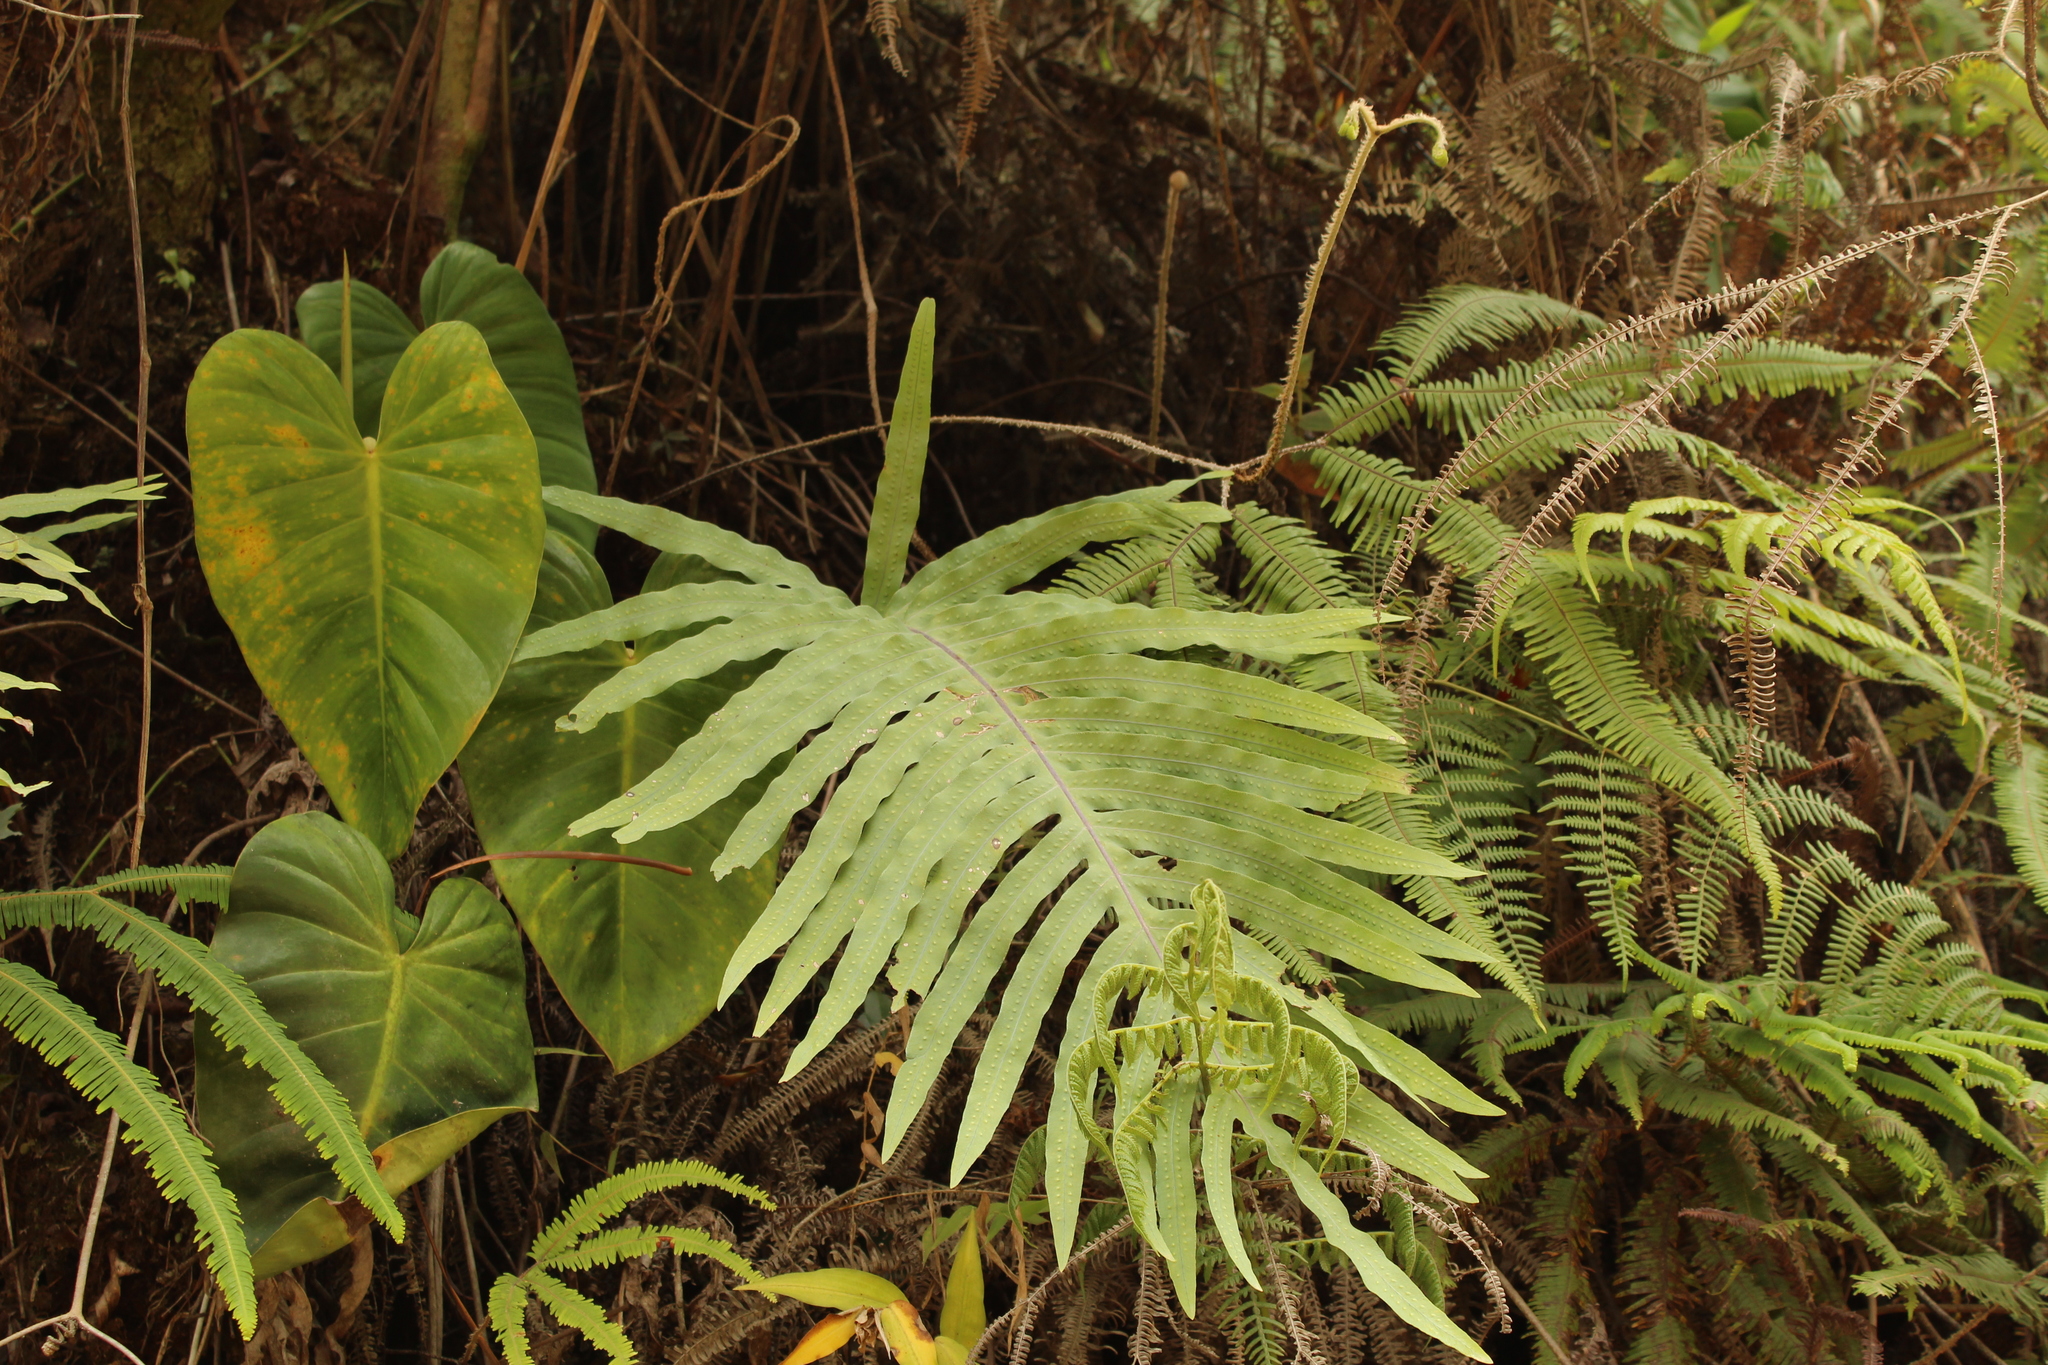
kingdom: Plantae
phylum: Tracheophyta
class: Polypodiopsida
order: Polypodiales
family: Polypodiaceae
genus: Phlebodium
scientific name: Phlebodium pseudoaureum
